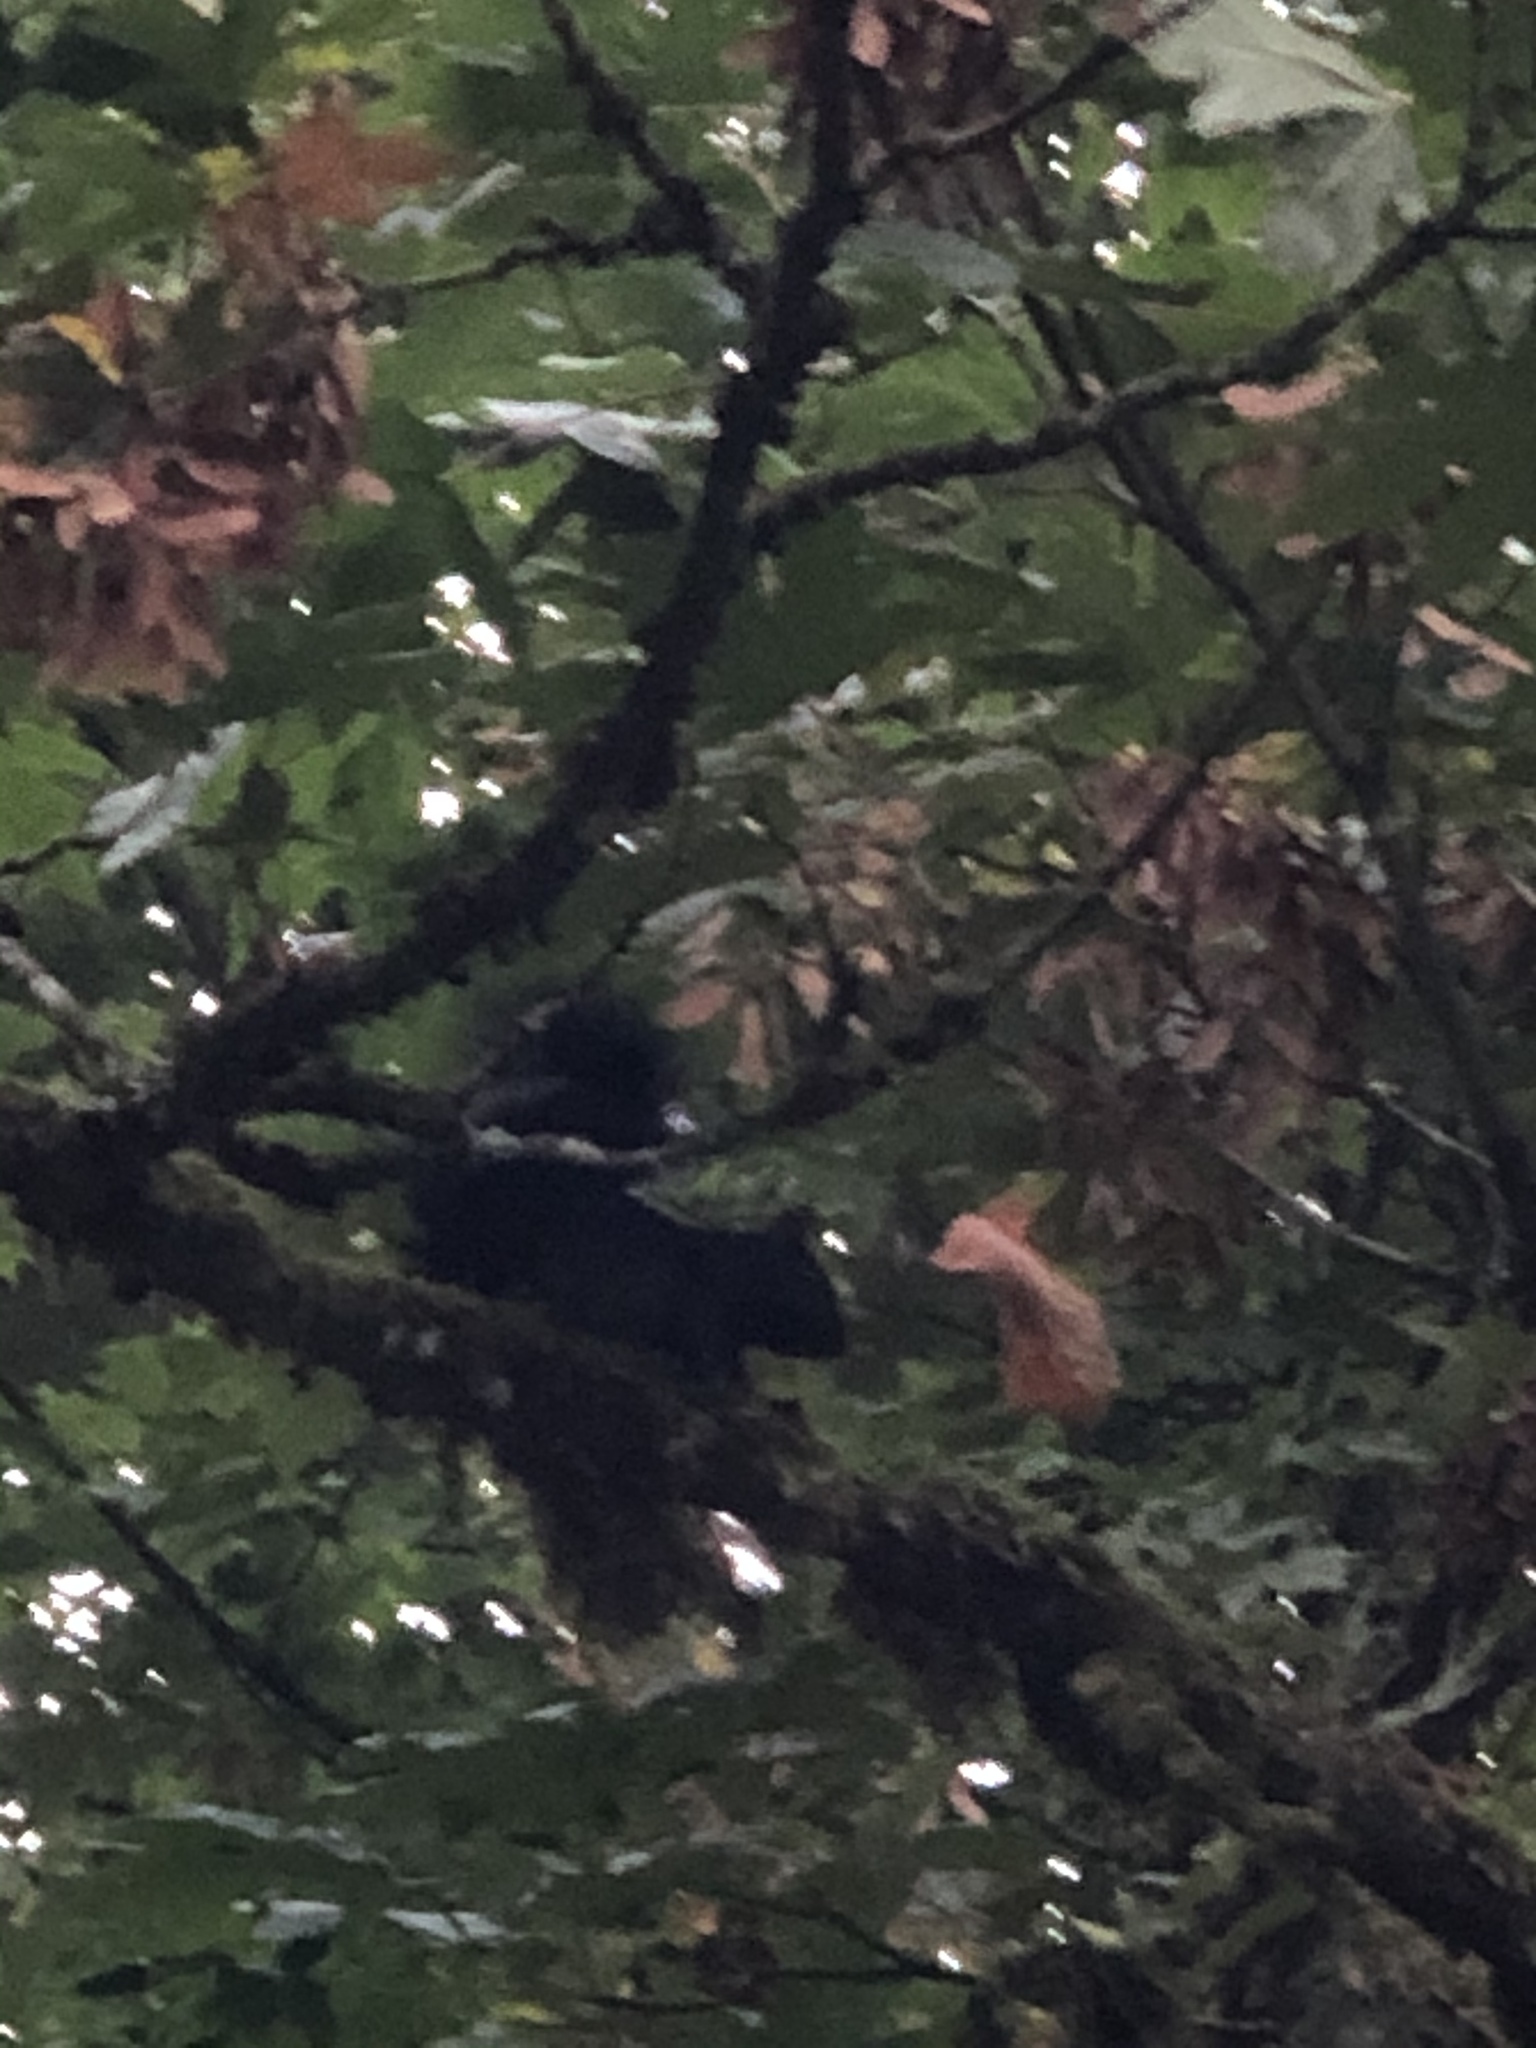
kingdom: Animalia
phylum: Chordata
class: Mammalia
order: Rodentia
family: Sciuridae
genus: Sciurus
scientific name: Sciurus carolinensis
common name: Eastern gray squirrel
